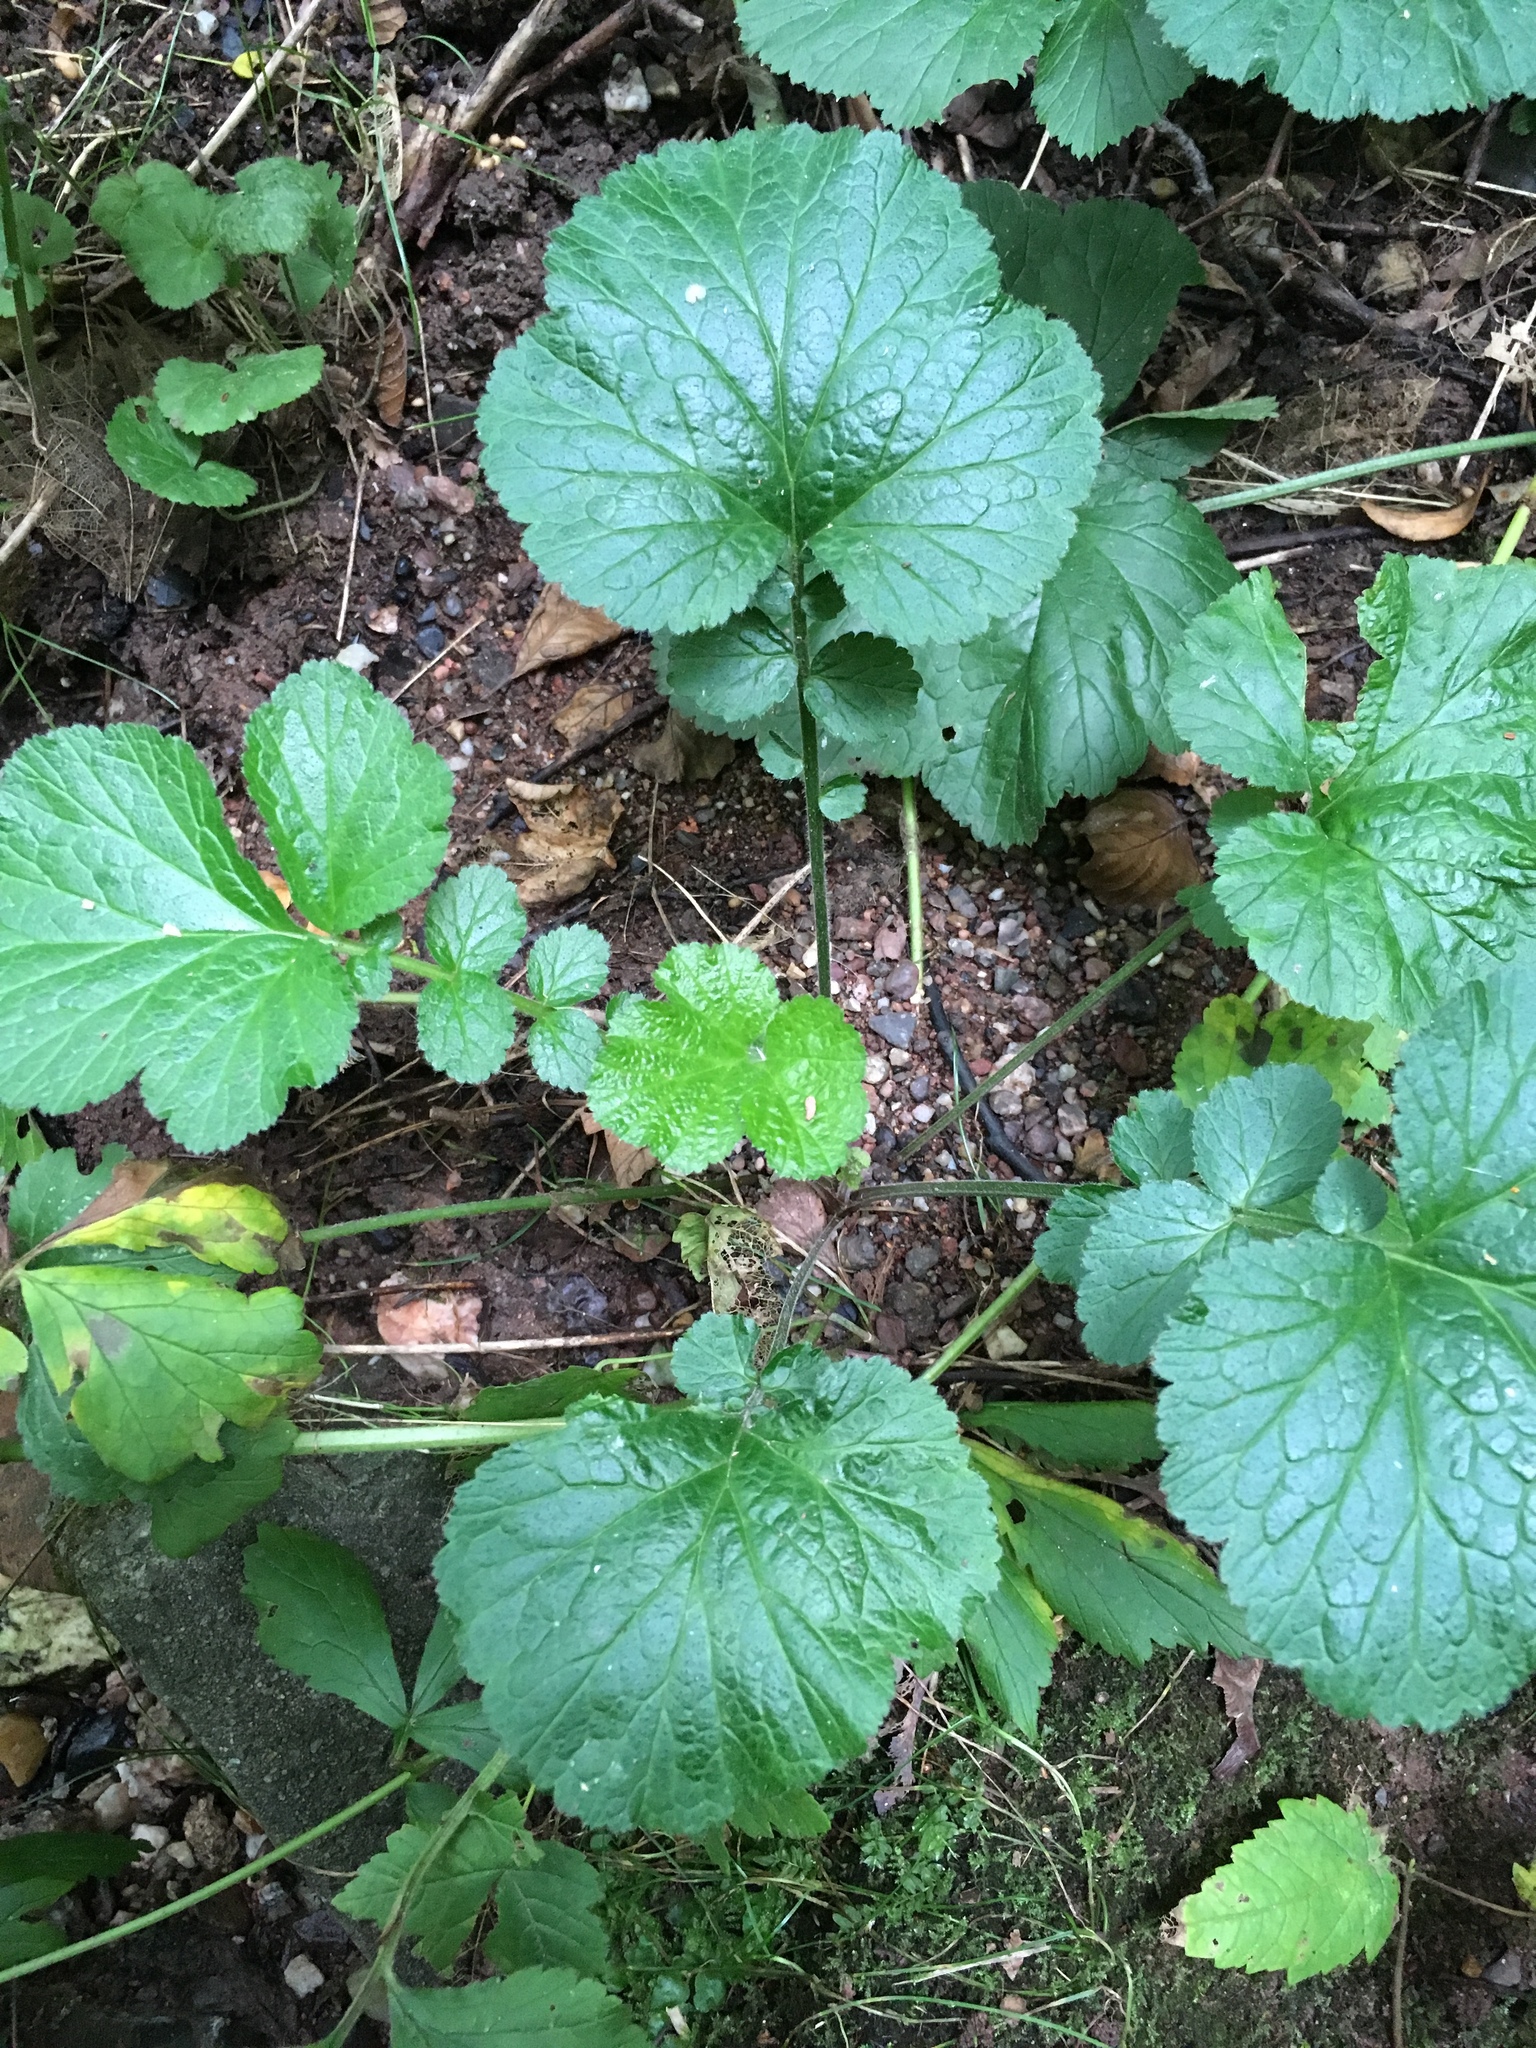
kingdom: Plantae
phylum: Tracheophyta
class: Magnoliopsida
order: Rosales
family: Rosaceae
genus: Geum
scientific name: Geum urbanum
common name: Wood avens
